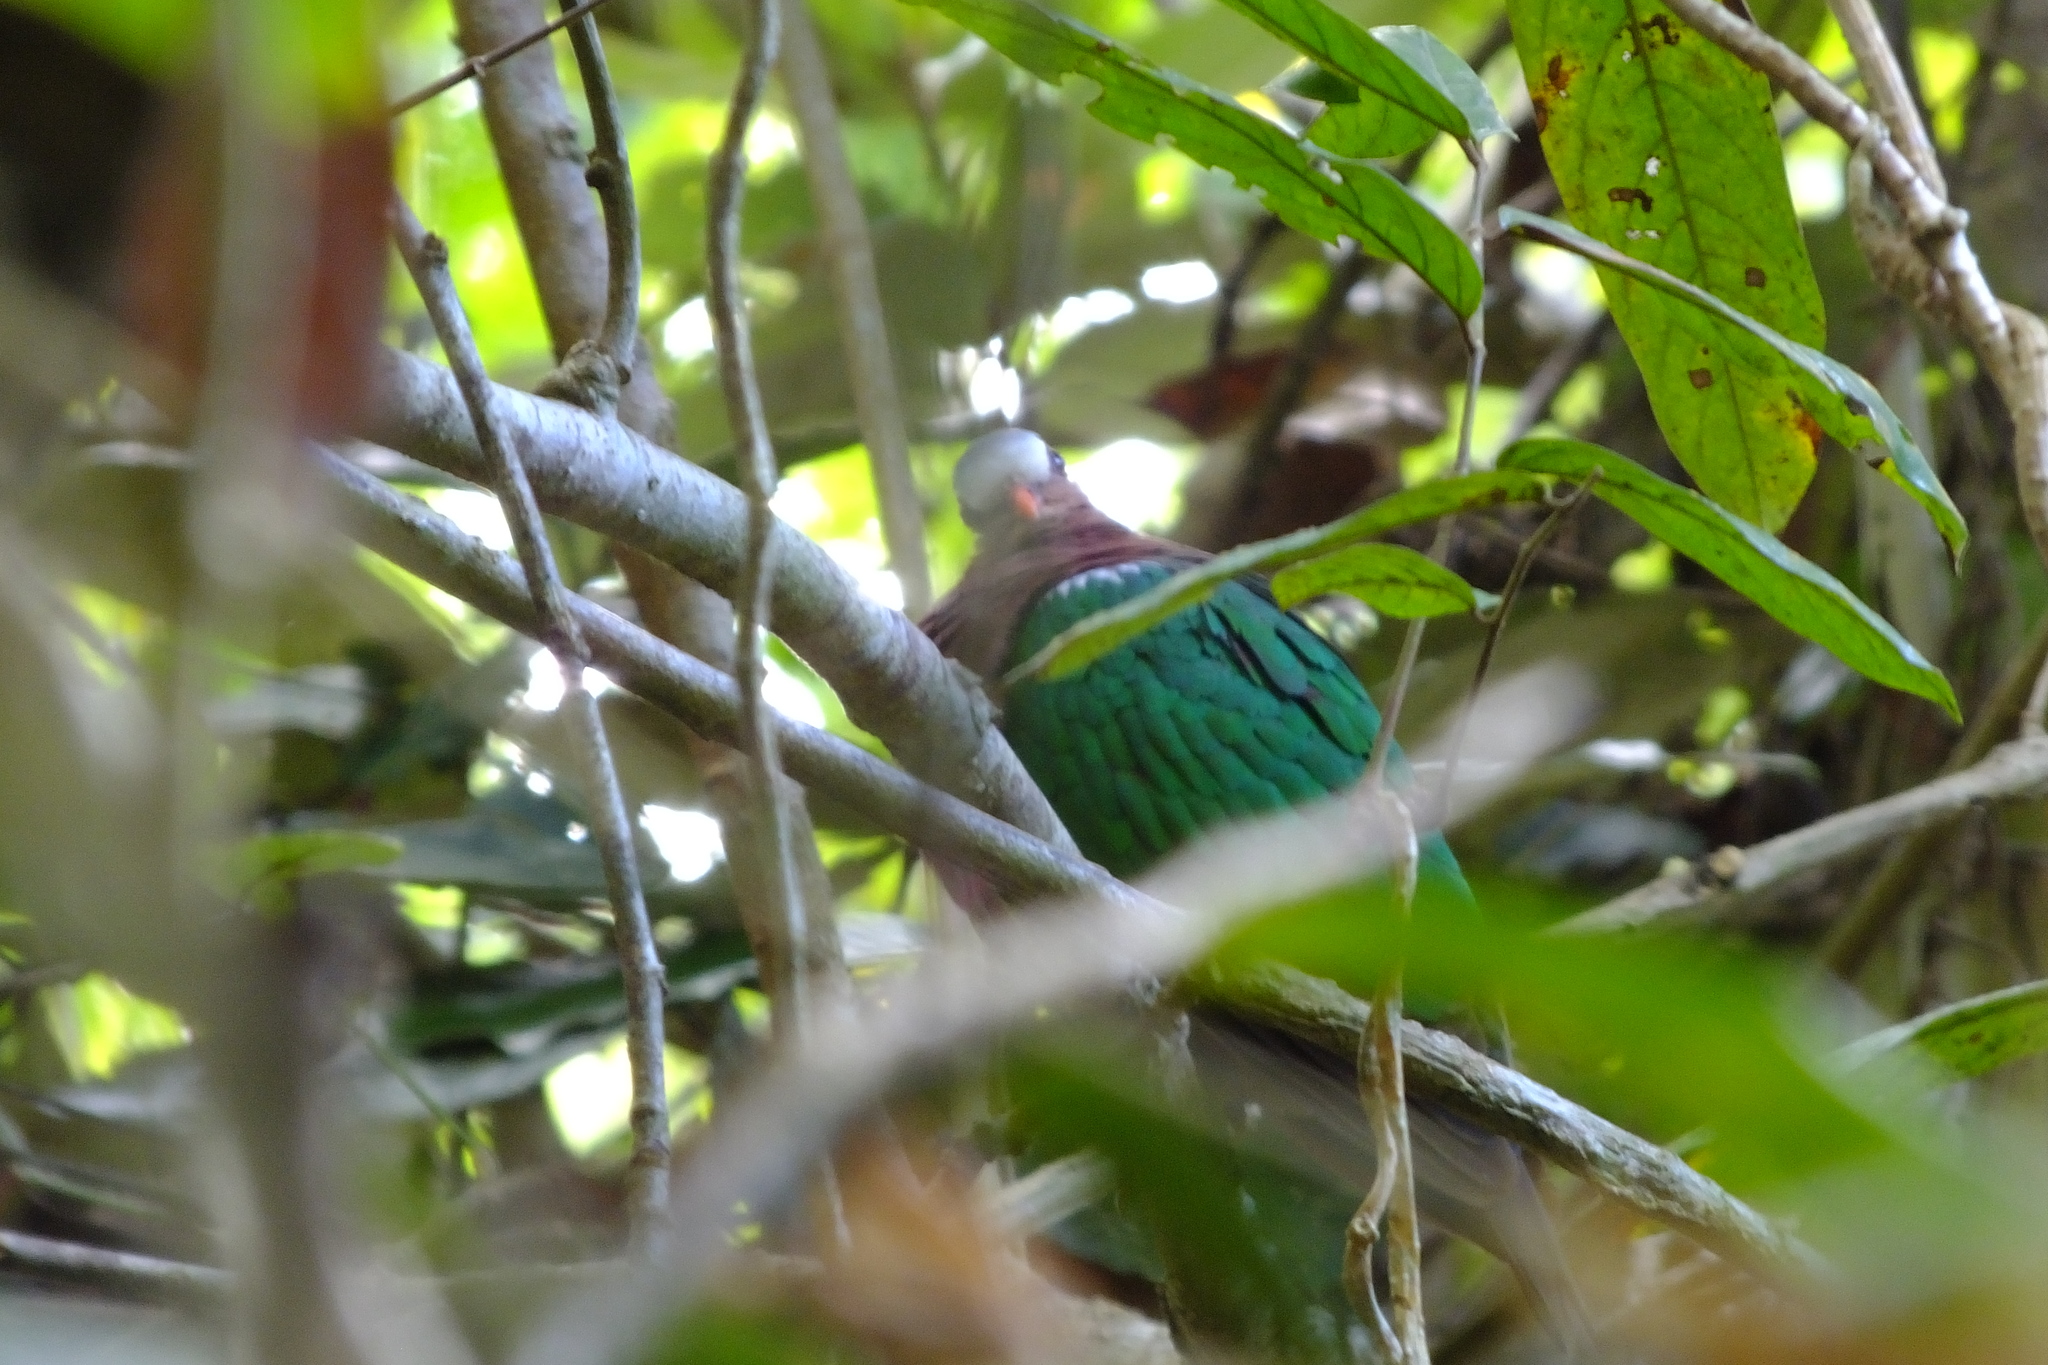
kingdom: Animalia
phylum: Chordata
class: Aves
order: Columbiformes
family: Columbidae
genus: Chalcophaps
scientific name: Chalcophaps indica
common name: Common emerald dove
